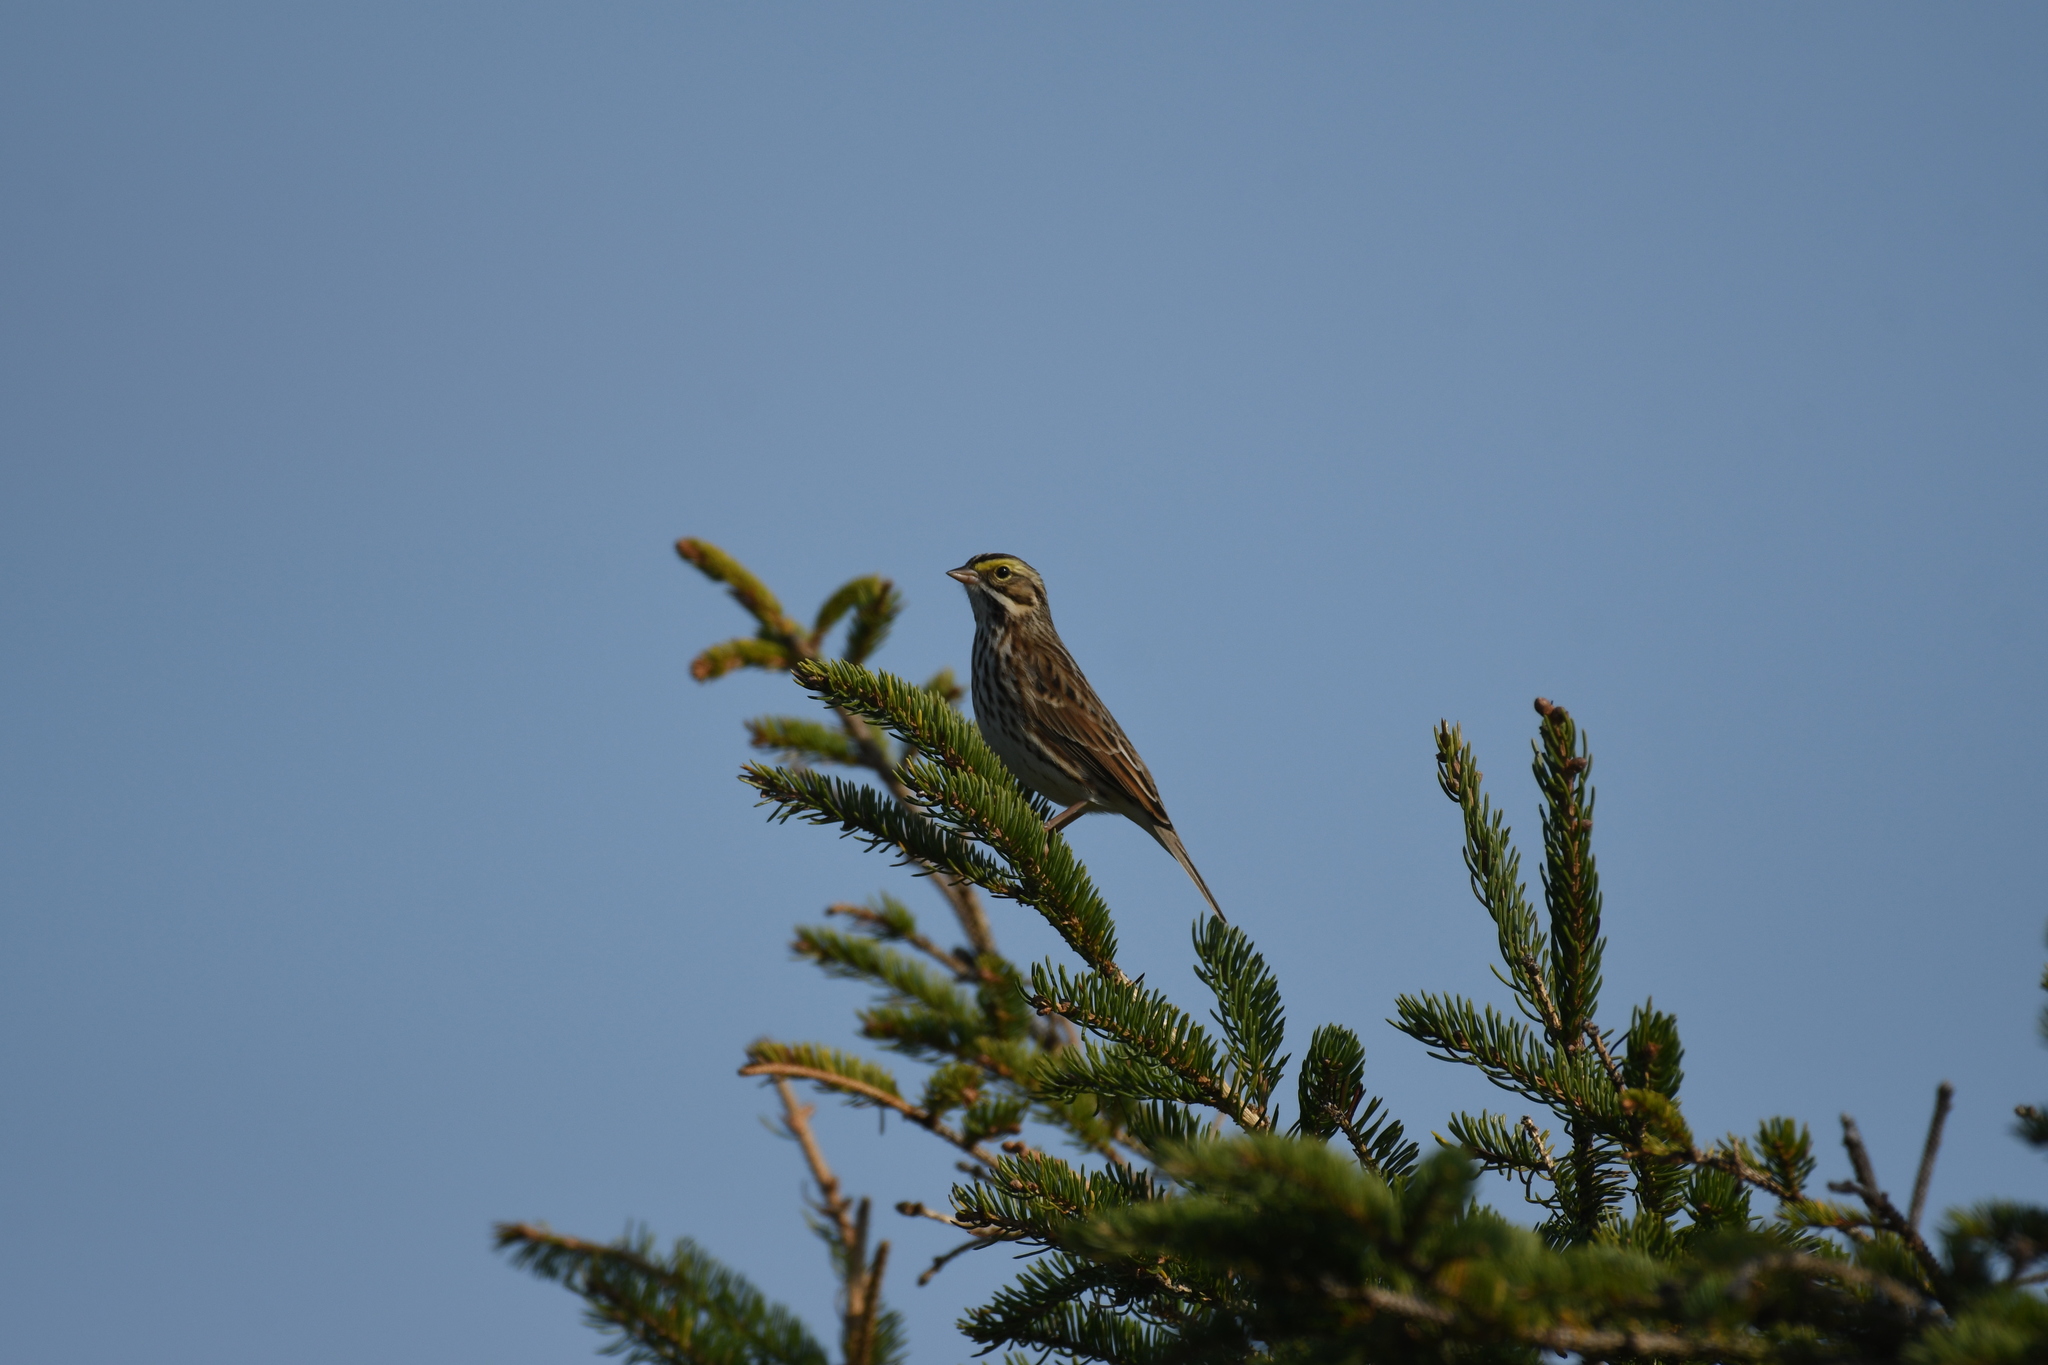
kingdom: Animalia
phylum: Chordata
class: Aves
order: Passeriformes
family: Passerellidae
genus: Passerculus
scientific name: Passerculus sandwichensis
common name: Savannah sparrow
